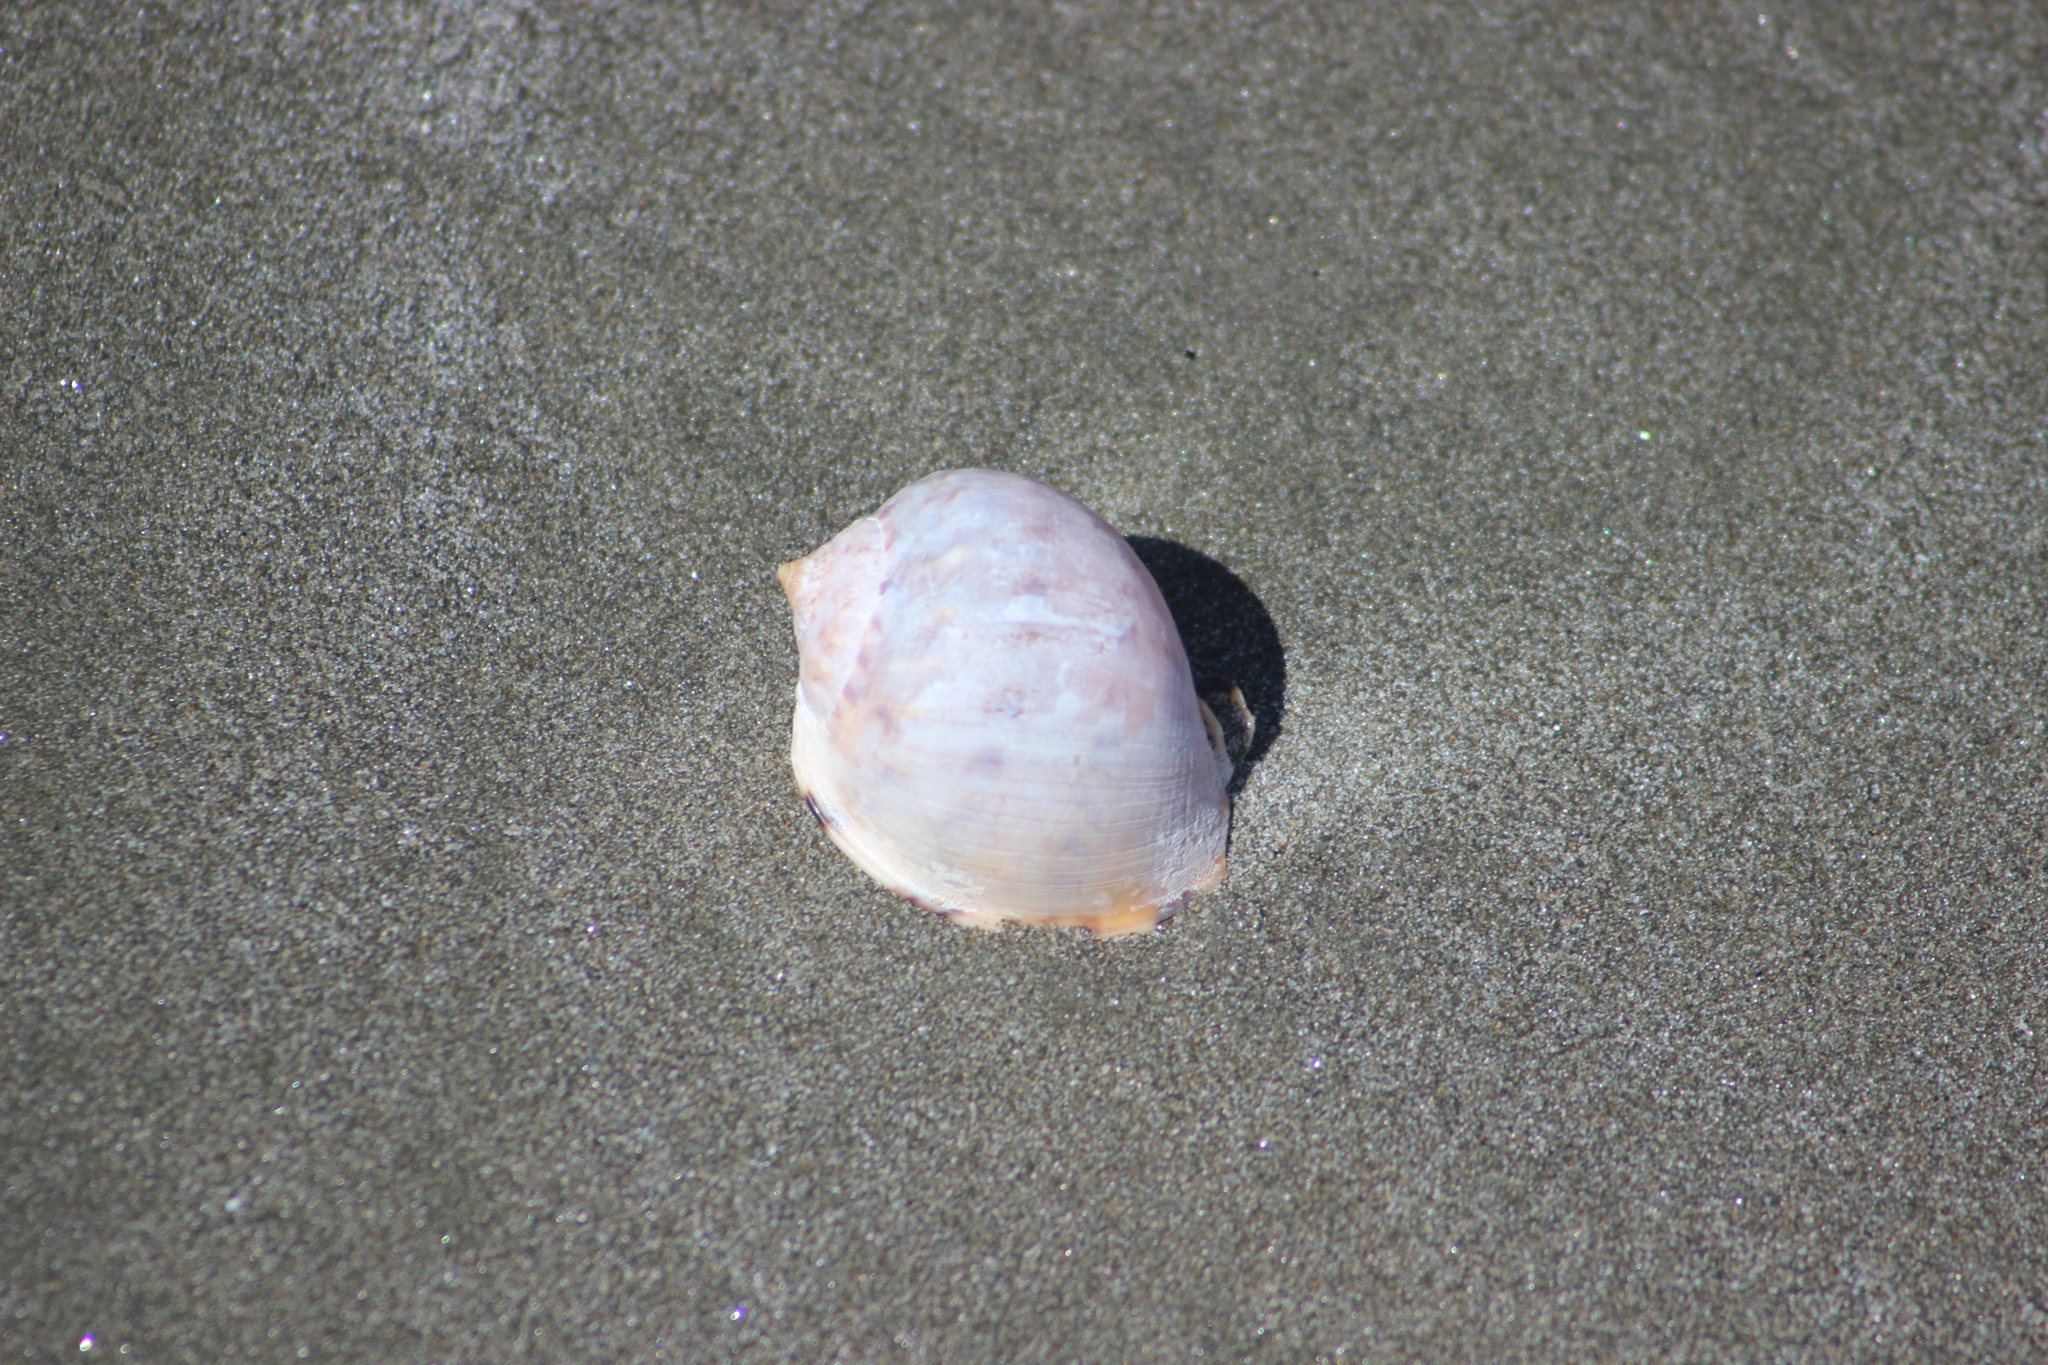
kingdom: Animalia
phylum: Mollusca
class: Gastropoda
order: Littorinimorpha
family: Cassidae
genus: Semicassis
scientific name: Semicassis pyrum
